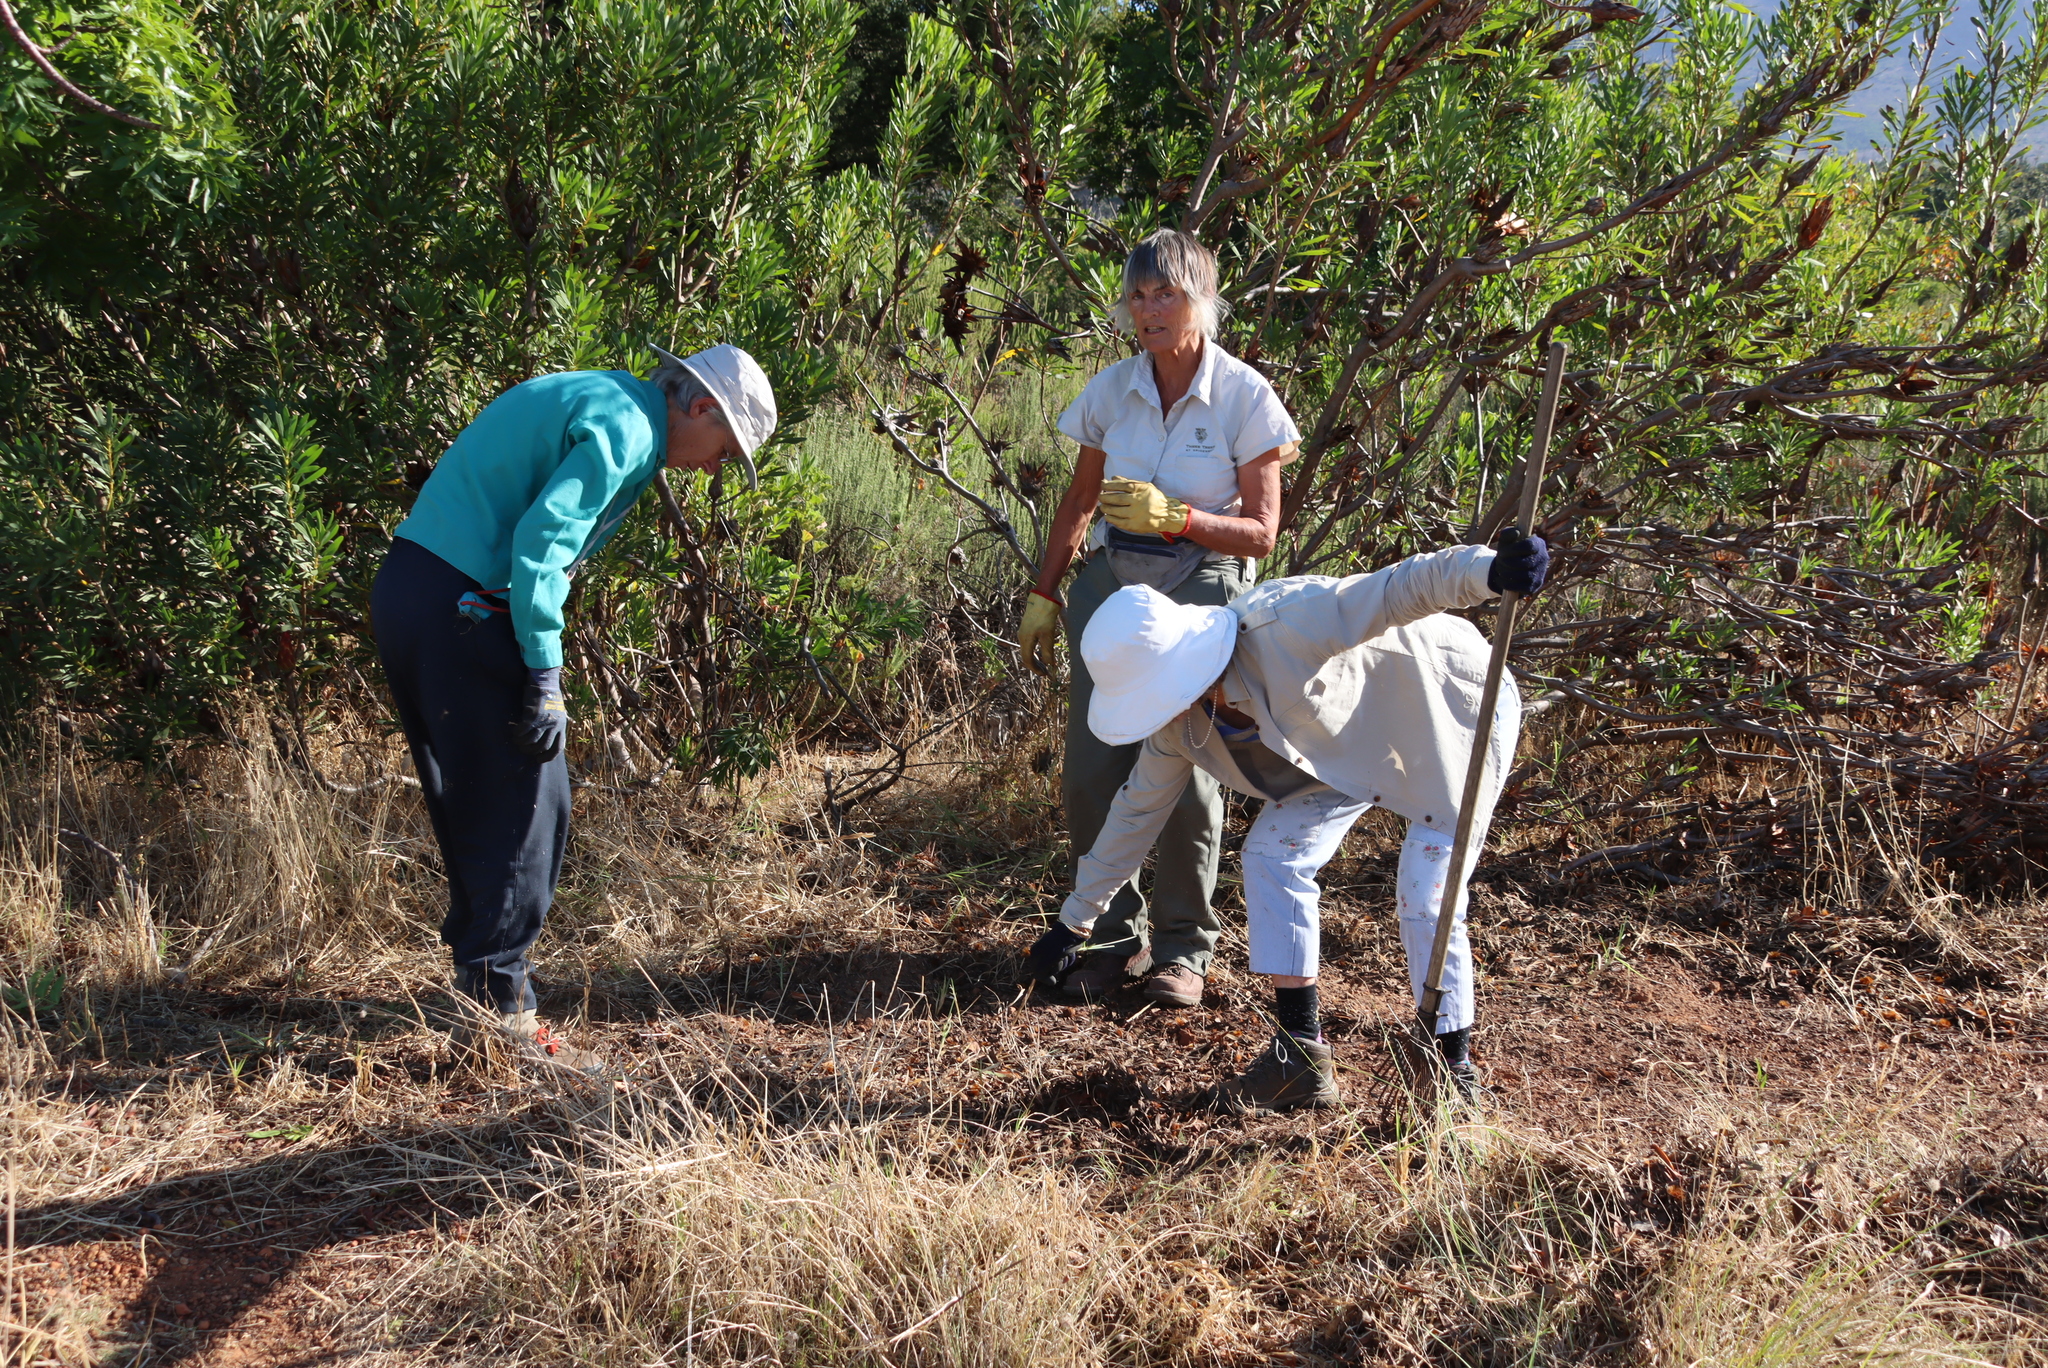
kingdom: Plantae
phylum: Tracheophyta
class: Magnoliopsida
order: Proteales
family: Proteaceae
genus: Protea
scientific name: Protea repens
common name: Sugarbush
